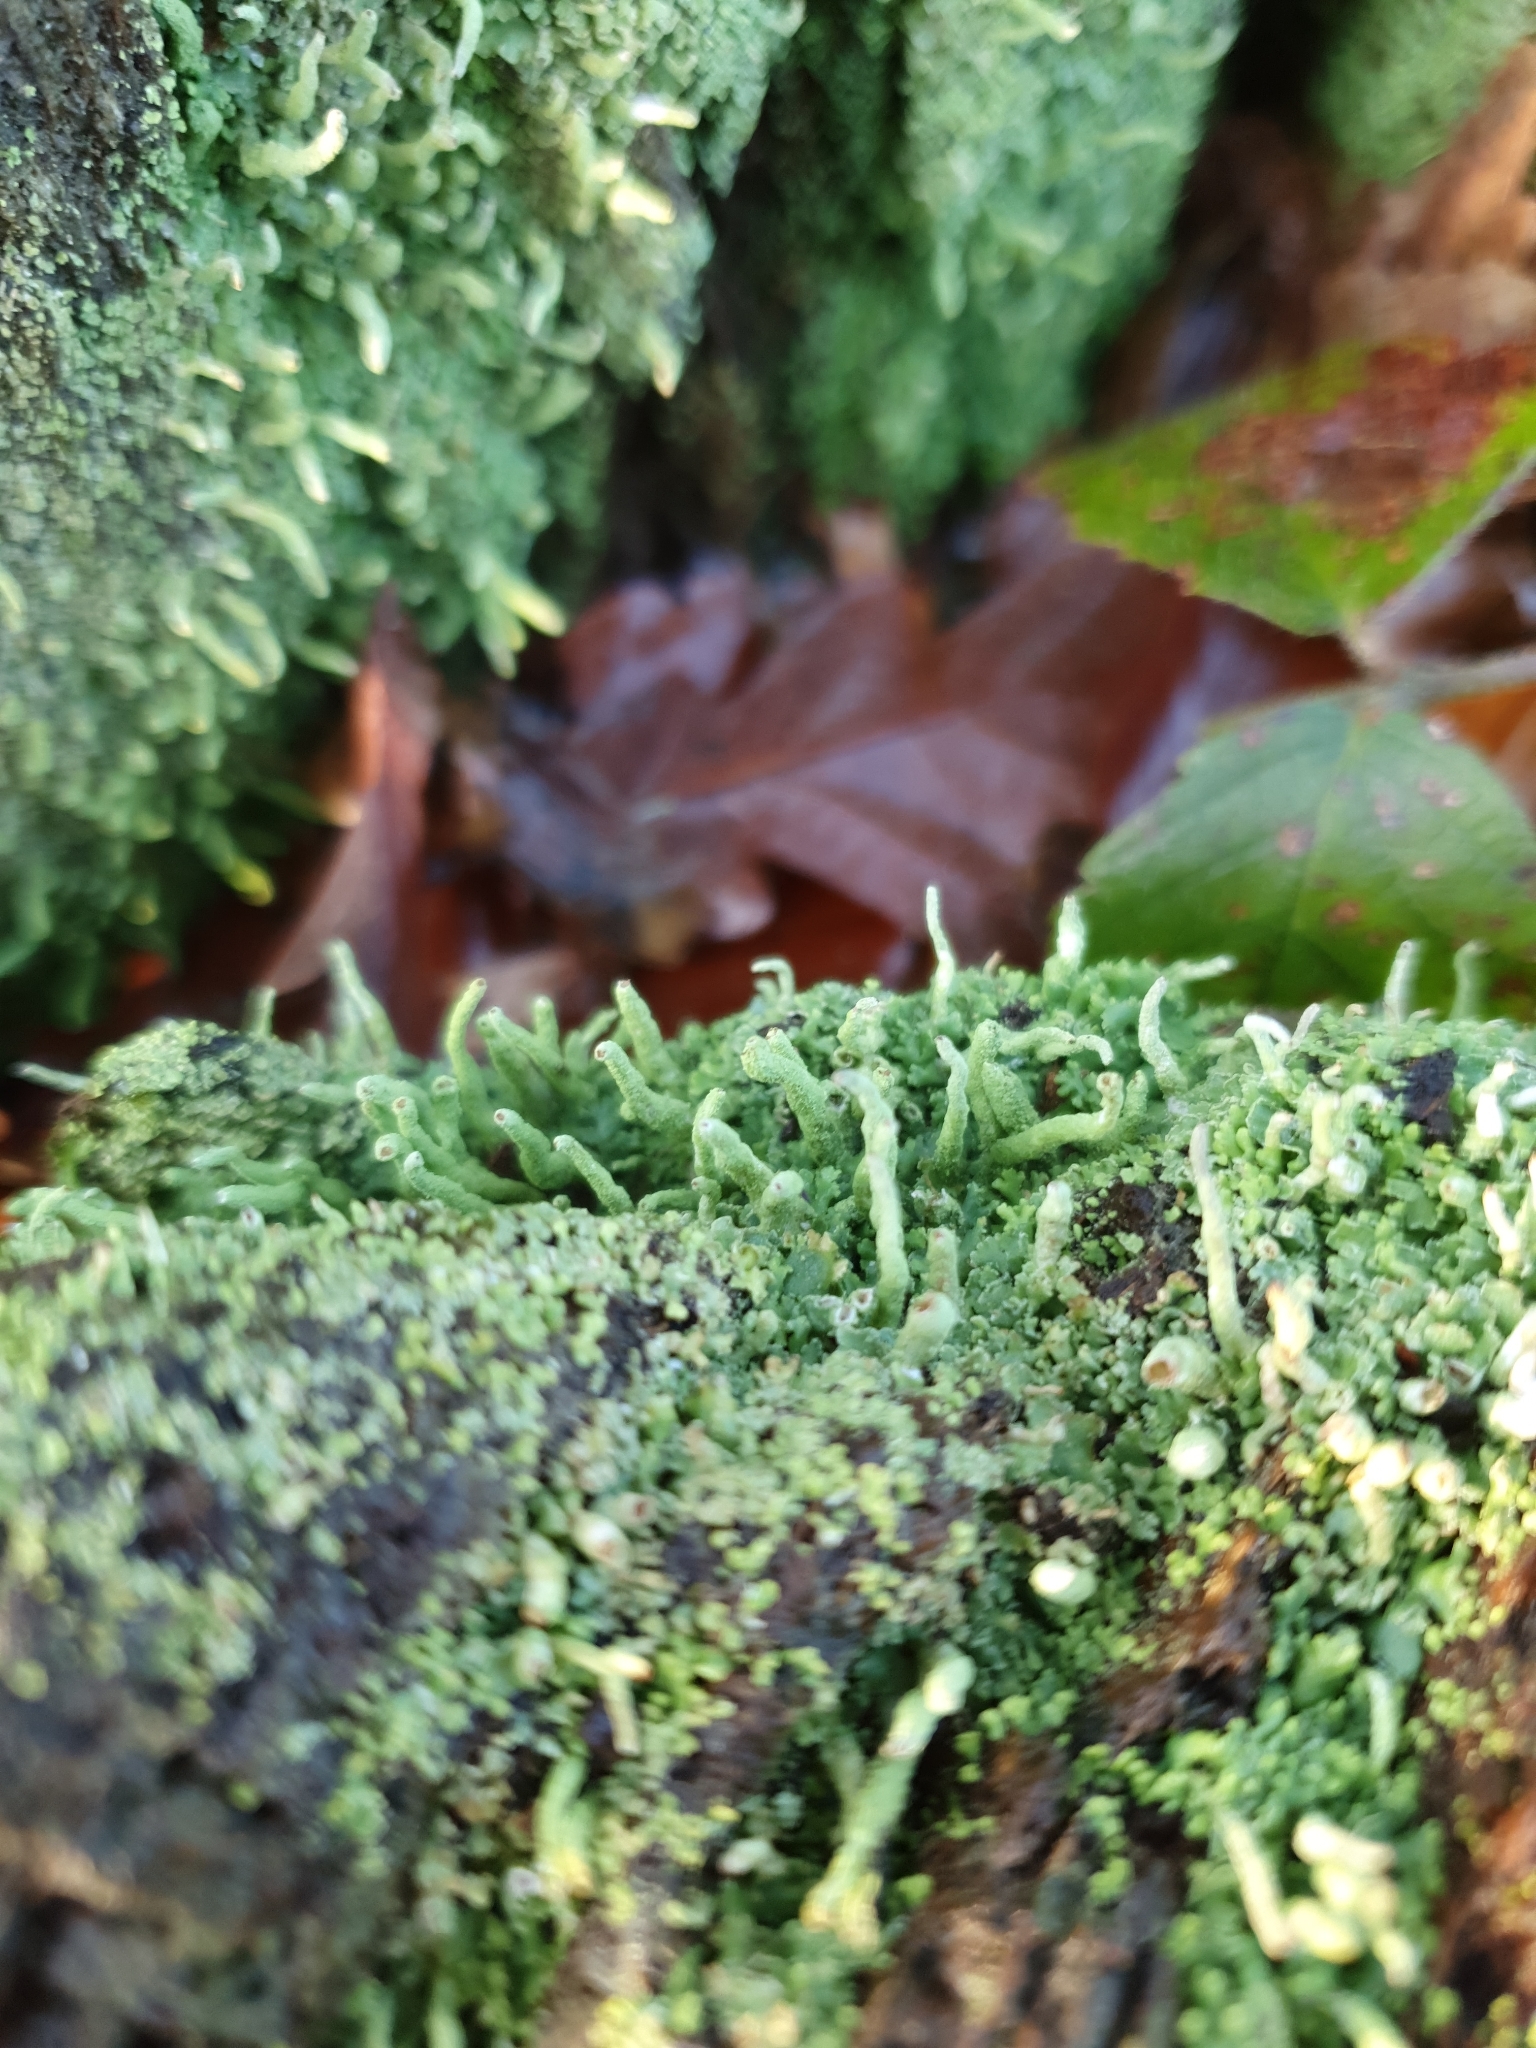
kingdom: Fungi
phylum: Ascomycota
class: Lecanoromycetes
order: Lecanorales
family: Cladoniaceae
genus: Cladonia
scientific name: Cladonia coniocraea
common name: Common powderhorn
